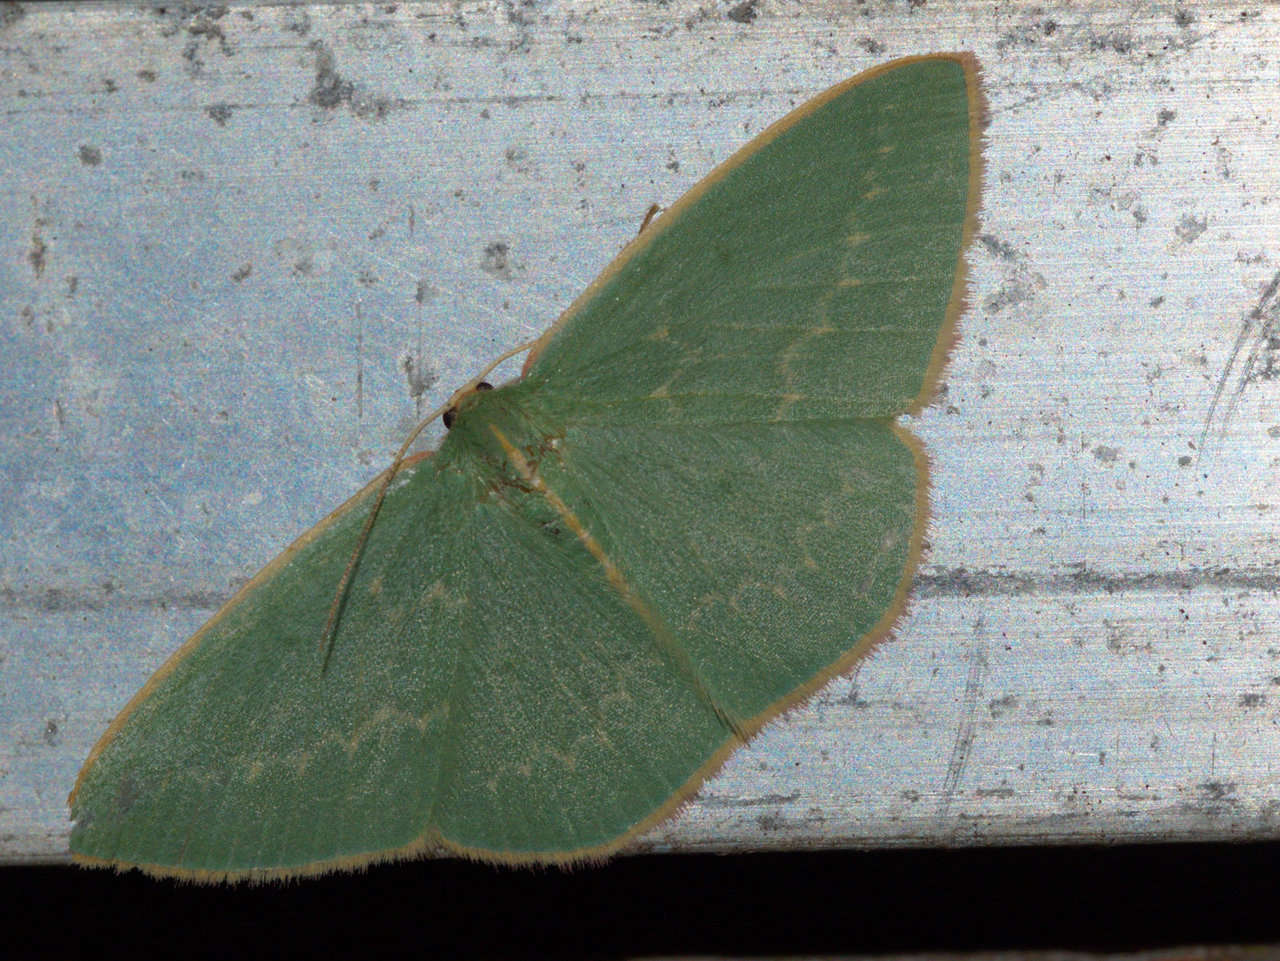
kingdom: Animalia
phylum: Arthropoda
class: Insecta
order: Lepidoptera
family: Geometridae
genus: Chlorocoma
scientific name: Chlorocoma dichloraria
